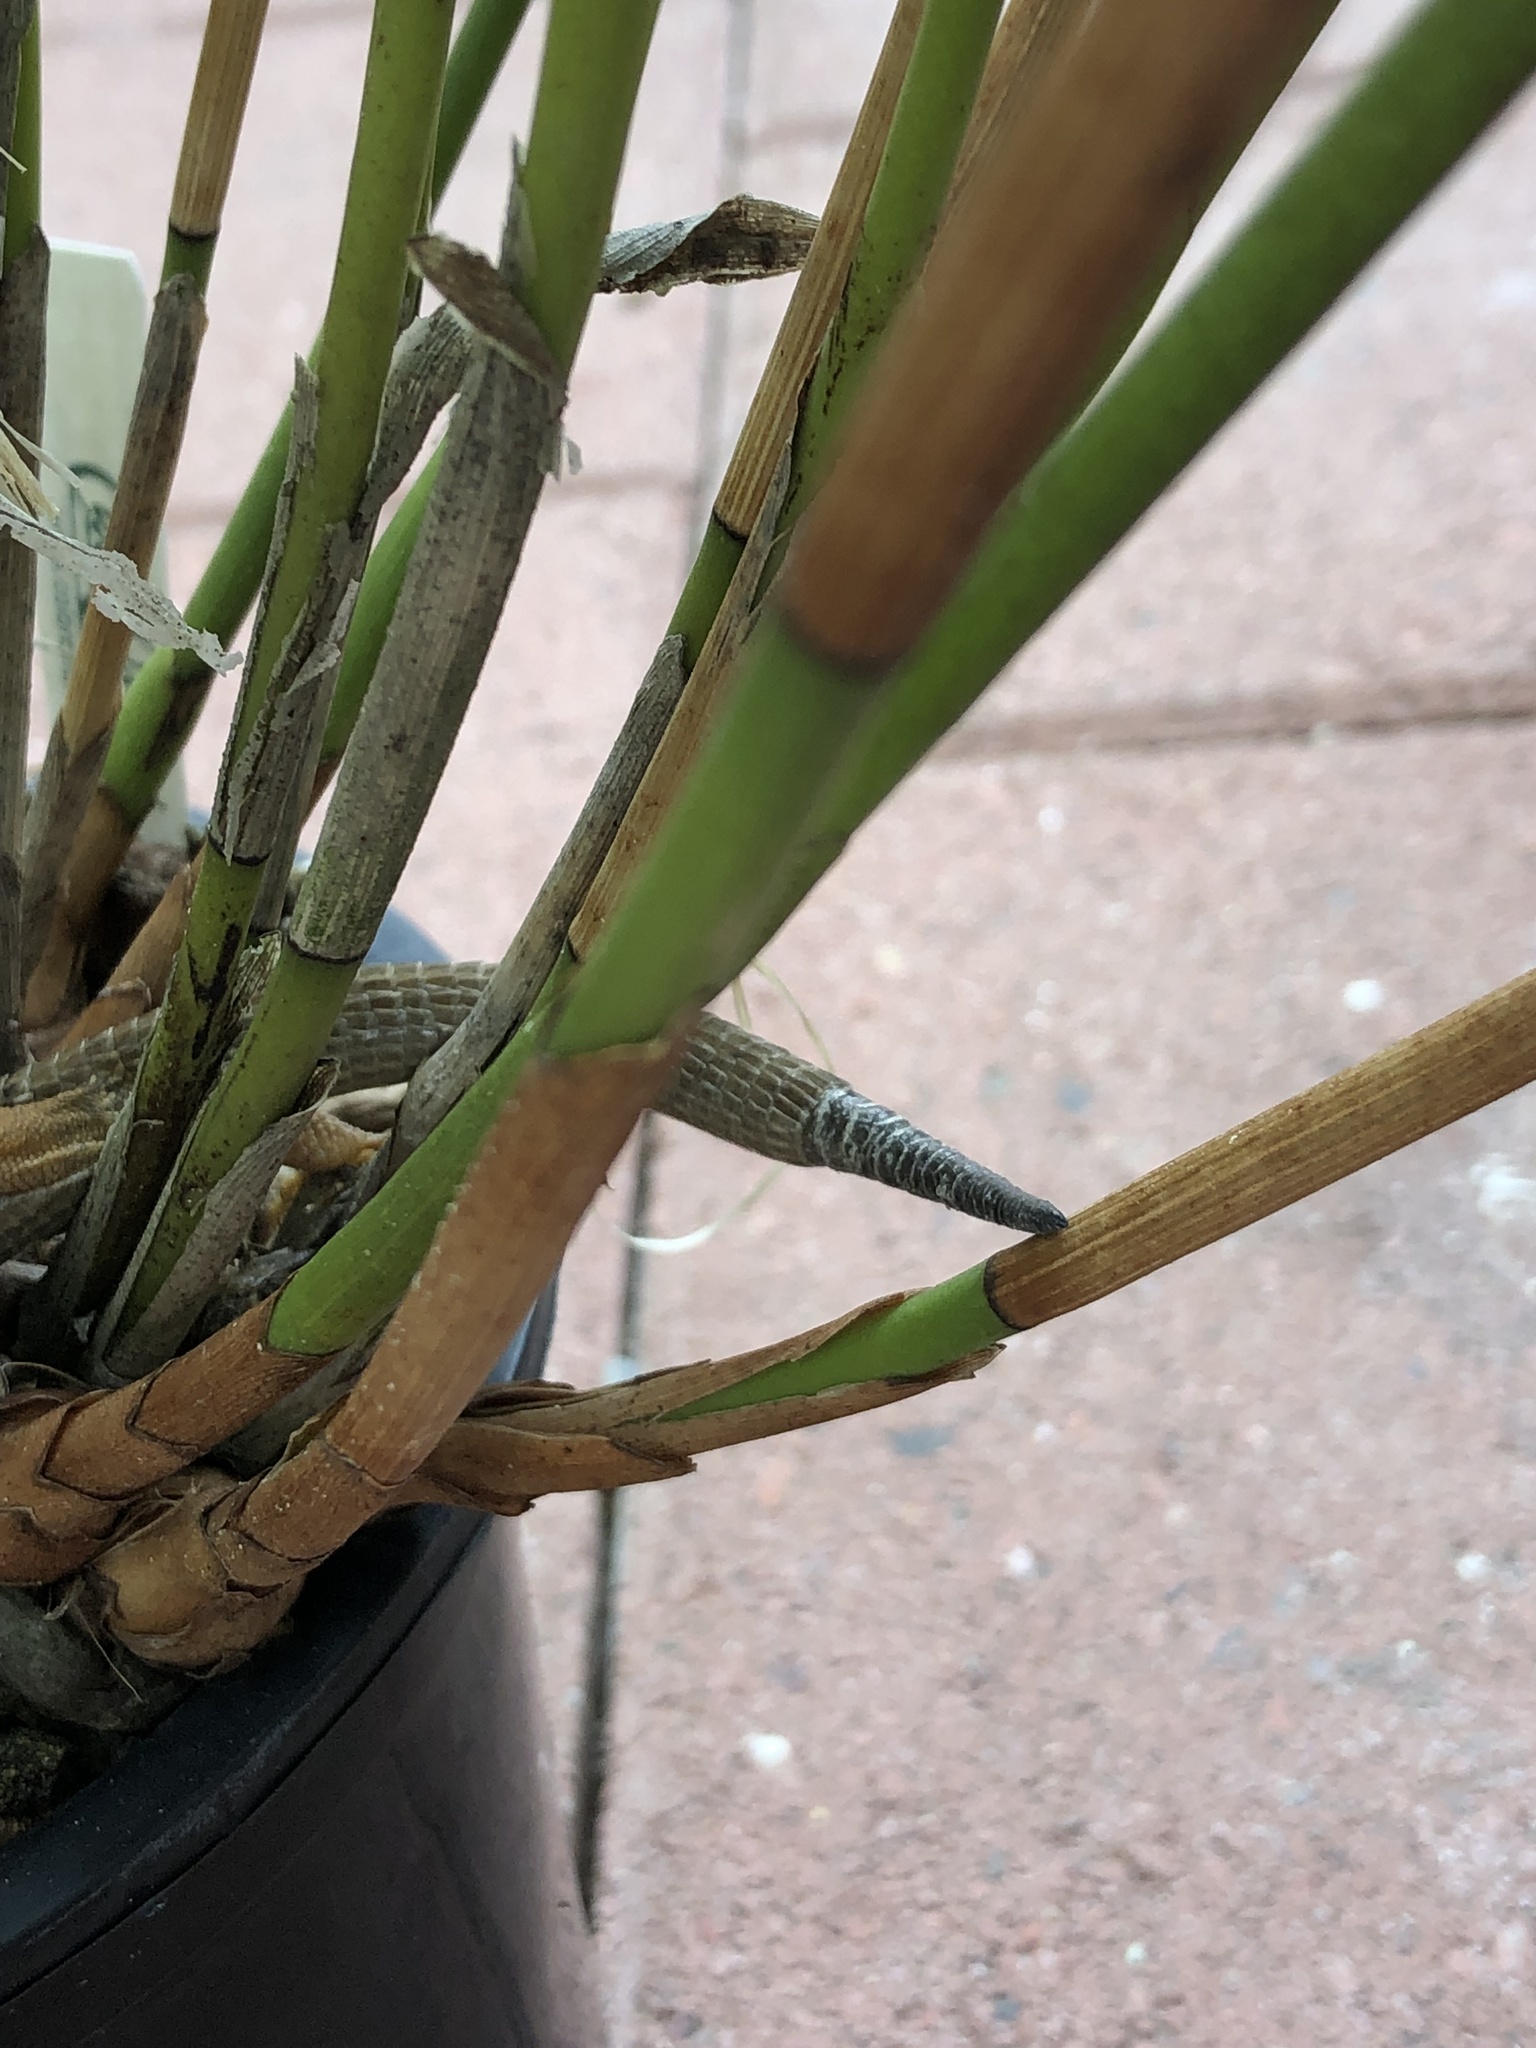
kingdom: Animalia
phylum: Chordata
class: Squamata
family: Anguidae
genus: Elgaria
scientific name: Elgaria multicarinata
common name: Southern alligator lizard
